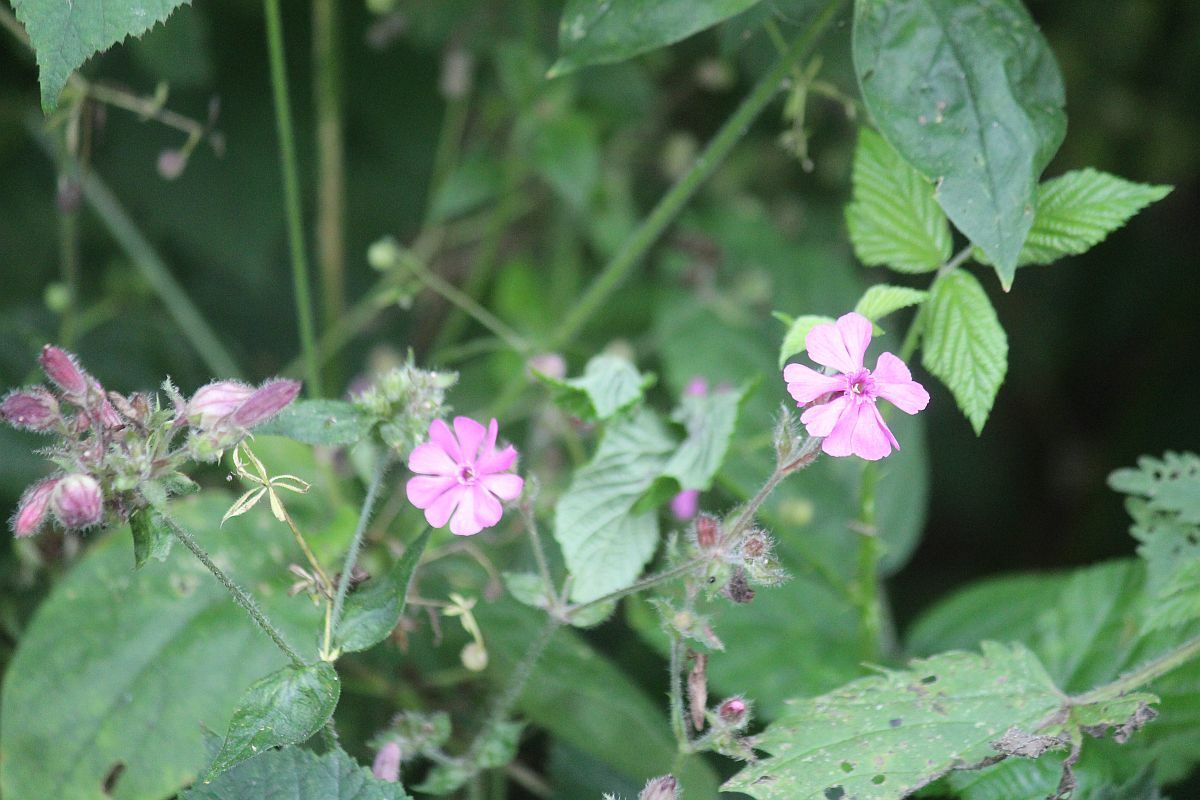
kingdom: Plantae
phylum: Tracheophyta
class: Magnoliopsida
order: Caryophyllales
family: Caryophyllaceae
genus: Silene
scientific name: Silene dioica
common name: Red campion
